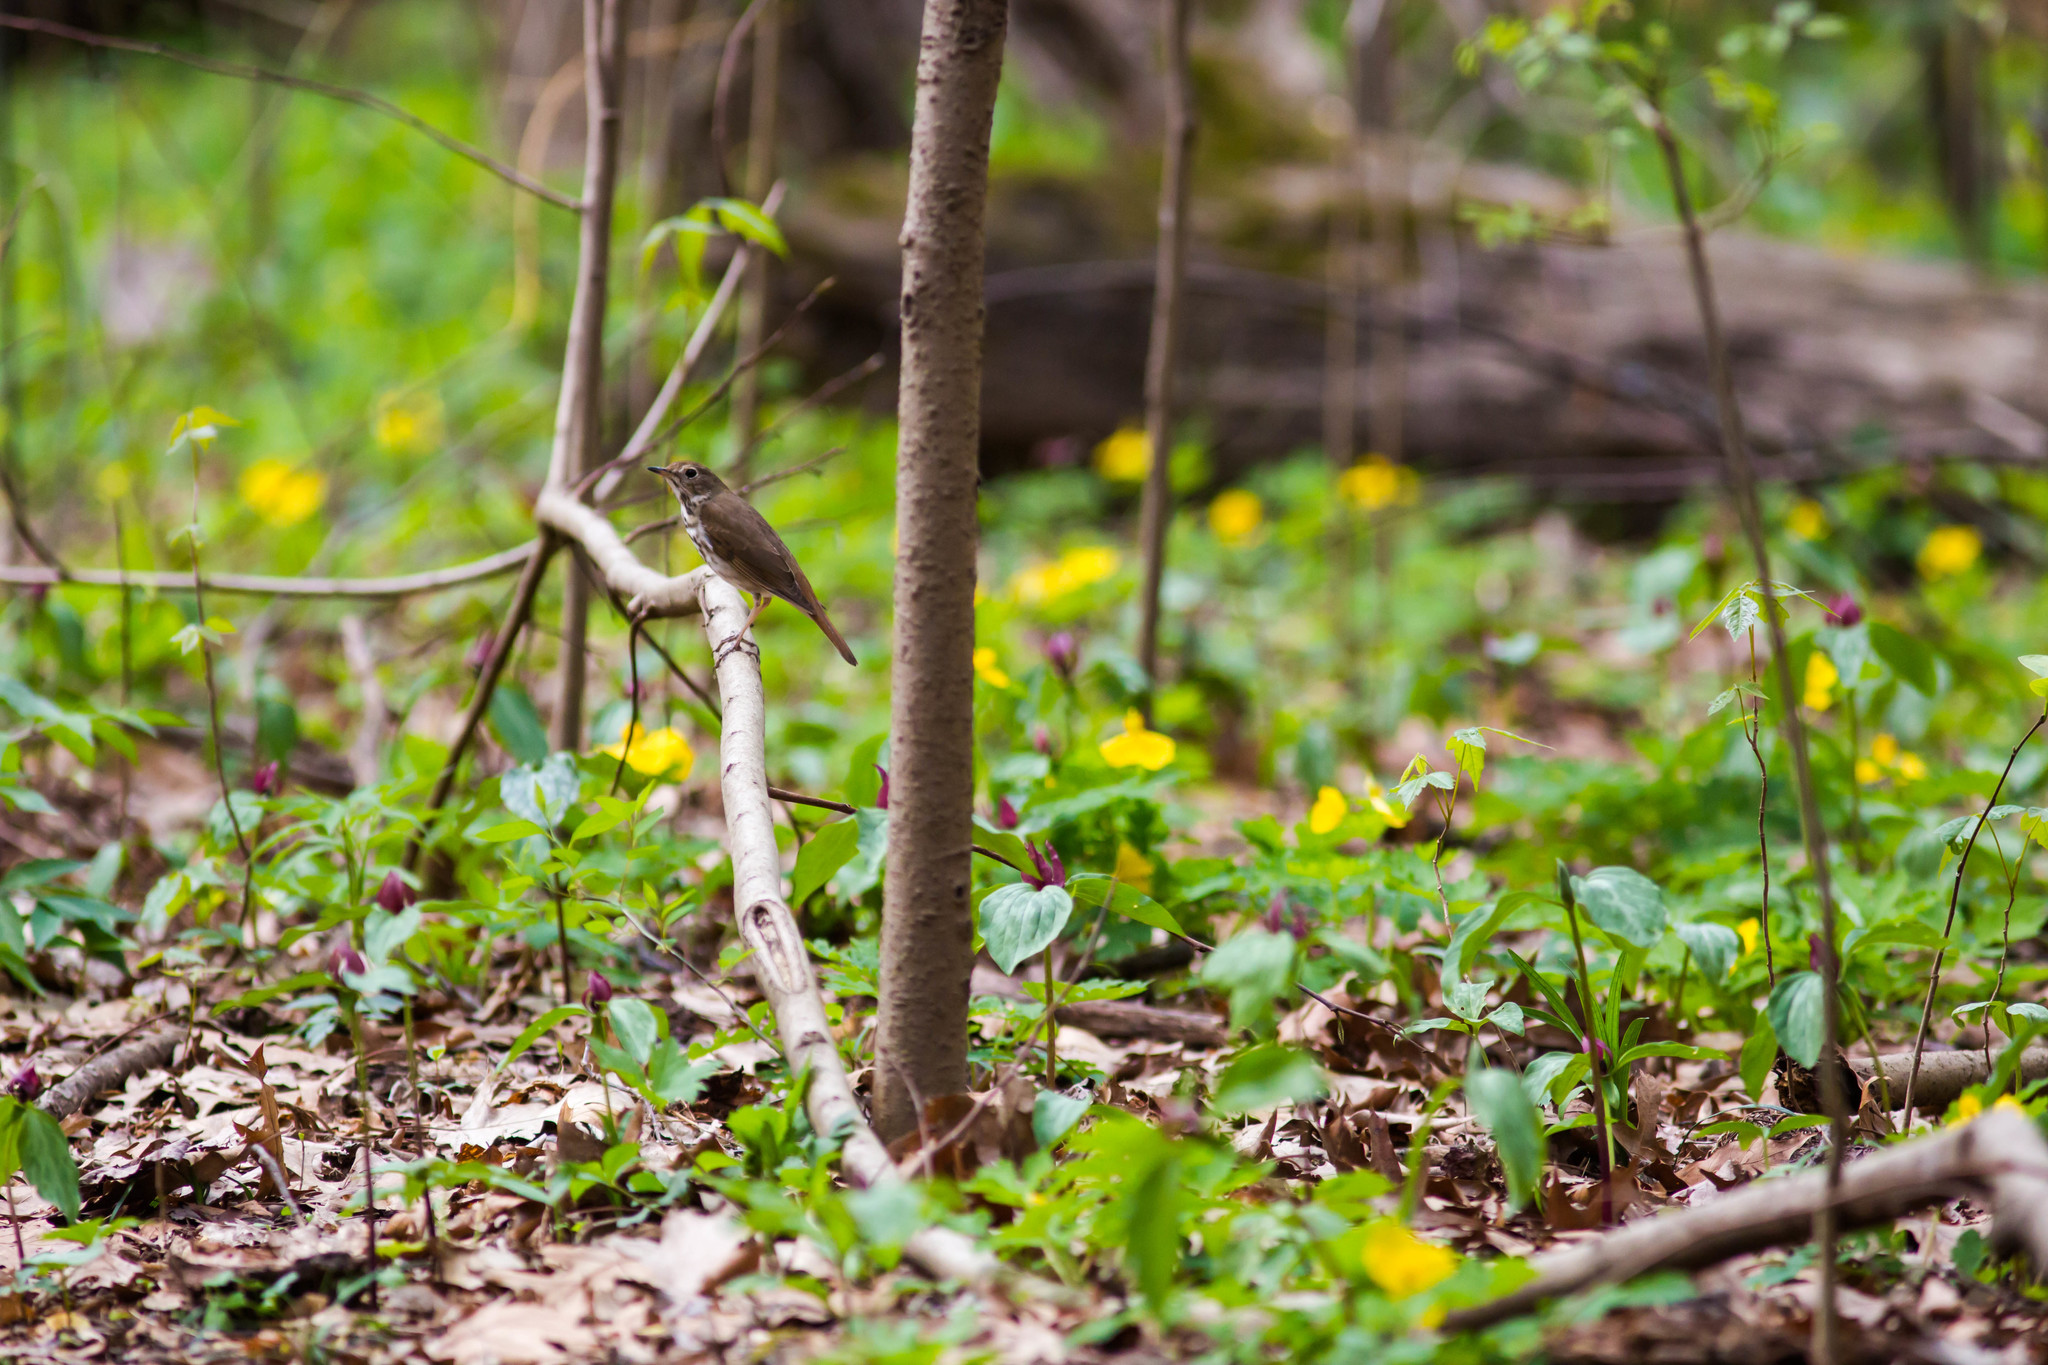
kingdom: Animalia
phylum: Chordata
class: Aves
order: Passeriformes
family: Turdidae
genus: Catharus
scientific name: Catharus guttatus
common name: Hermit thrush
